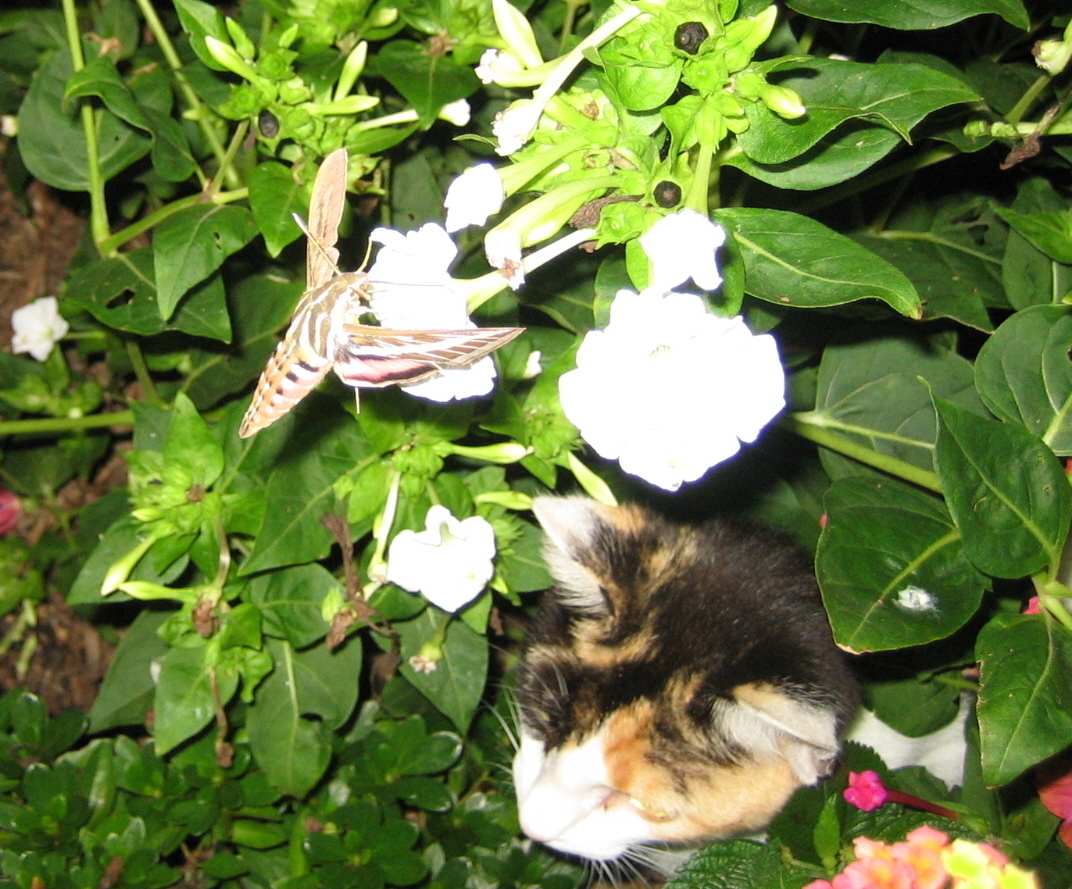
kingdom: Animalia
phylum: Arthropoda
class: Insecta
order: Lepidoptera
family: Sphingidae
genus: Hyles
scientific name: Hyles lineata
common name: White-lined sphinx
